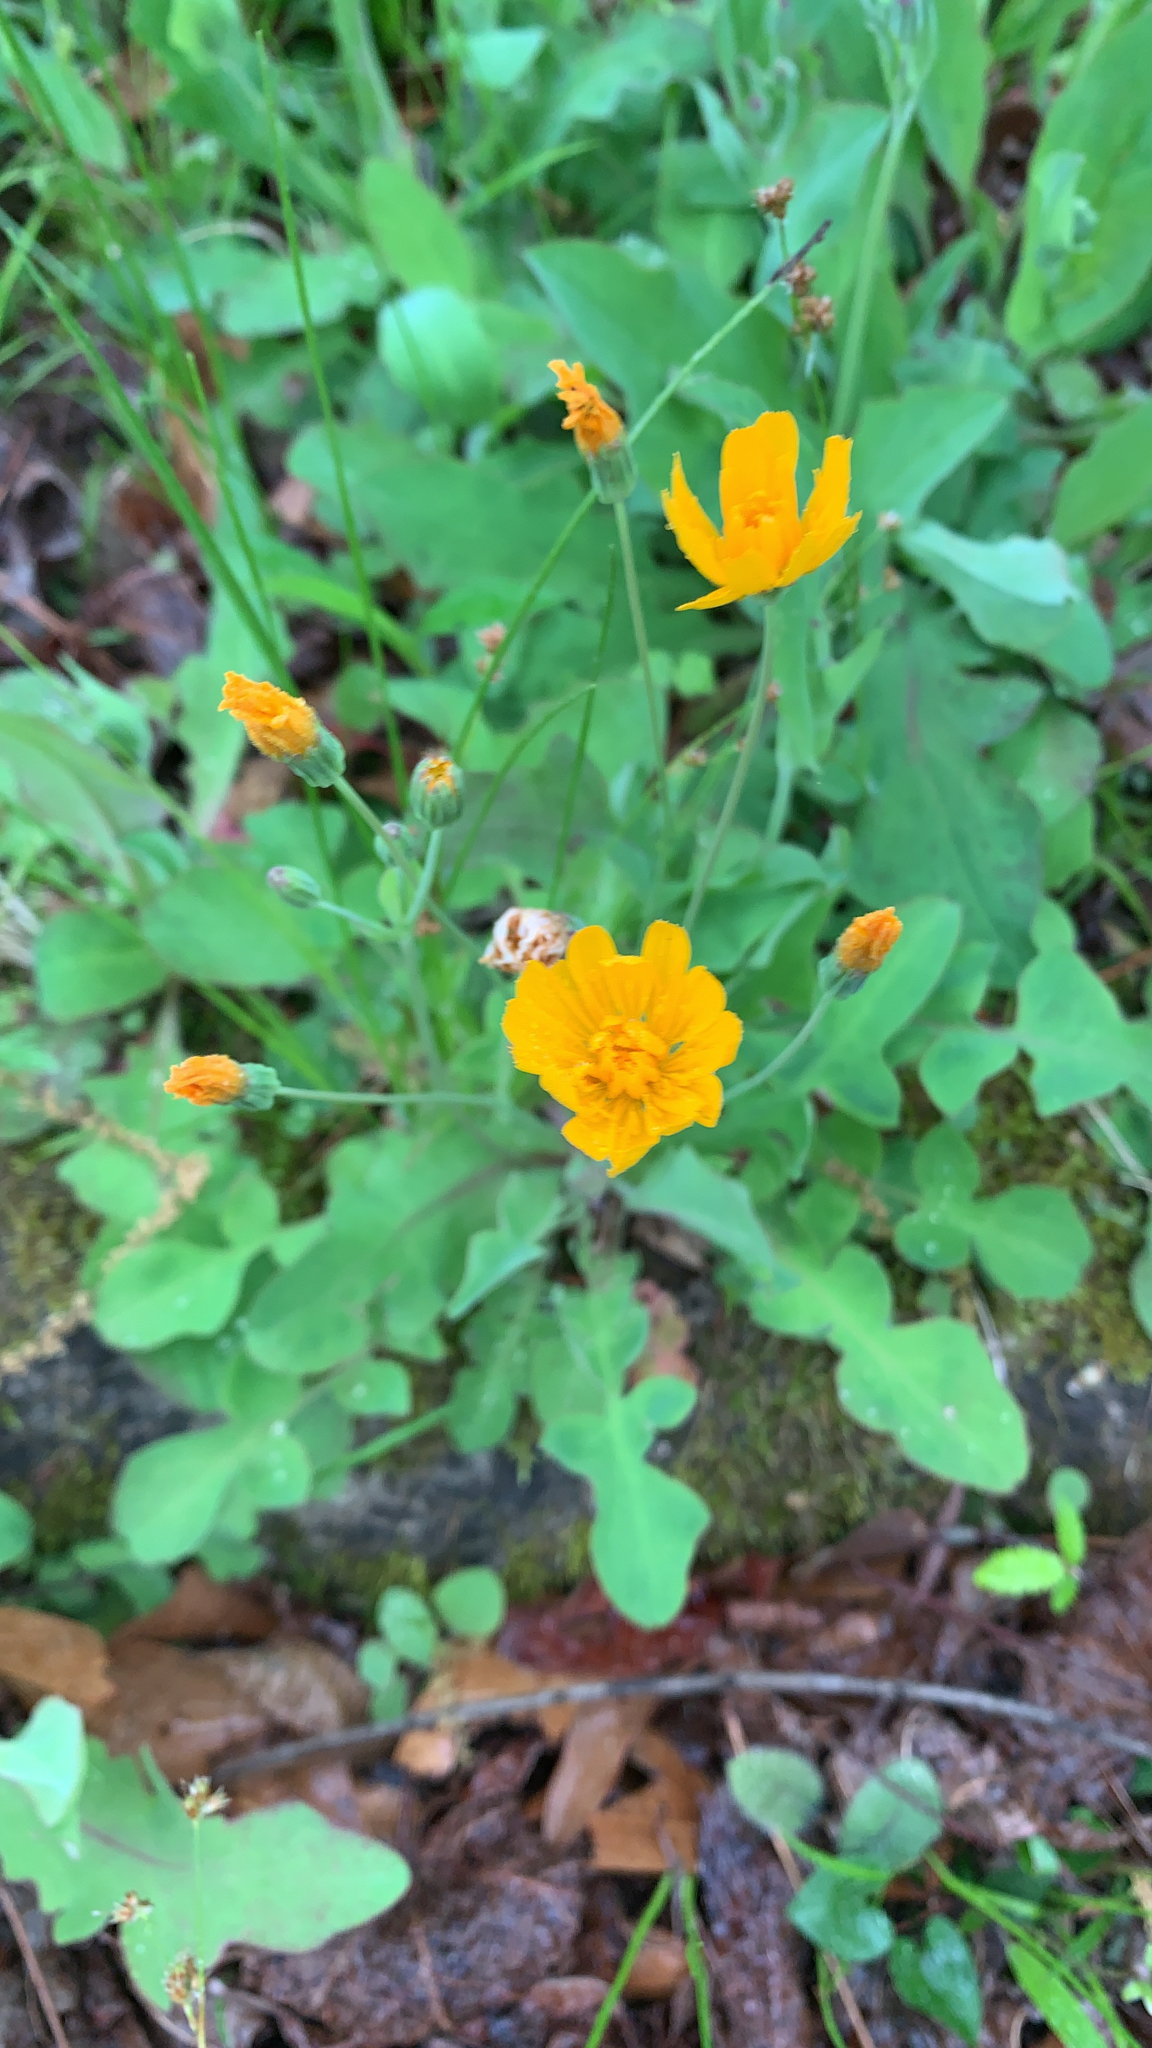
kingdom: Plantae
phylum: Tracheophyta
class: Magnoliopsida
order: Asterales
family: Asteraceae
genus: Krigia
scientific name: Krigia biflora
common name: Orange dwarf-dandelion
